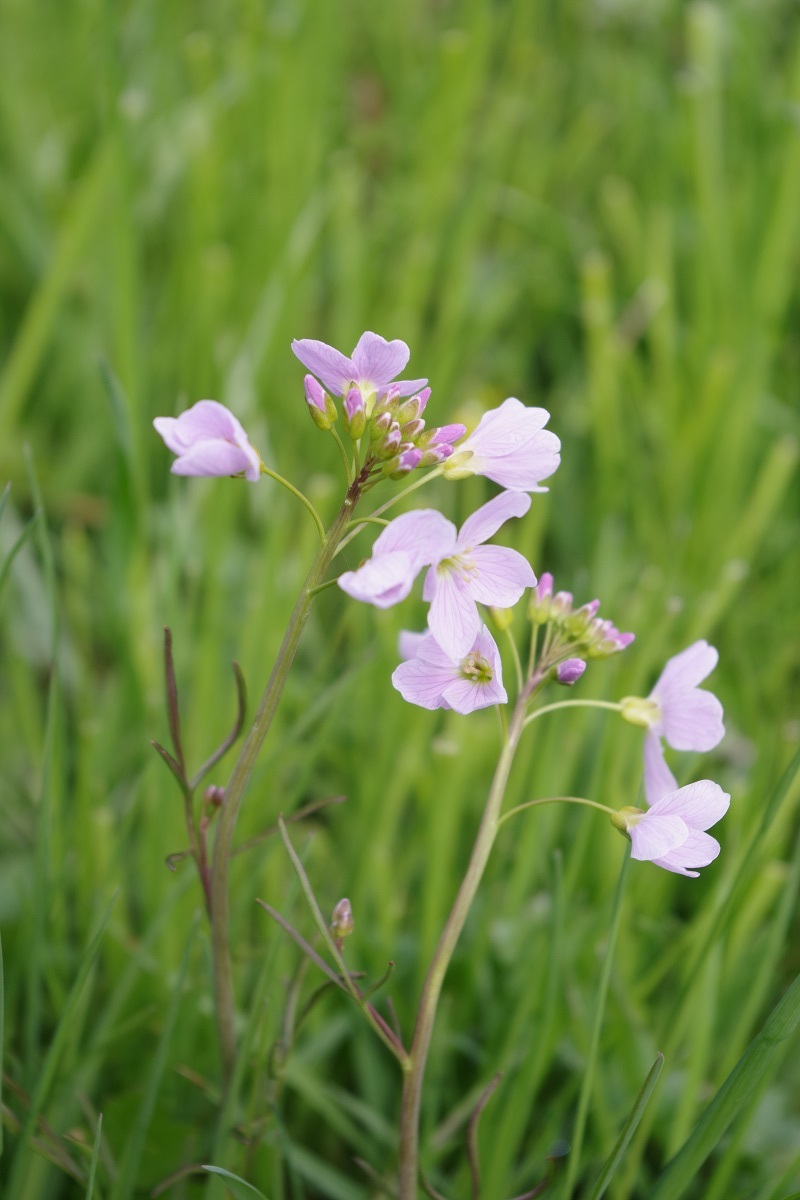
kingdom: Plantae
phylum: Tracheophyta
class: Magnoliopsida
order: Brassicales
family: Brassicaceae
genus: Cardamine
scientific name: Cardamine pratensis
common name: Cuckoo flower
